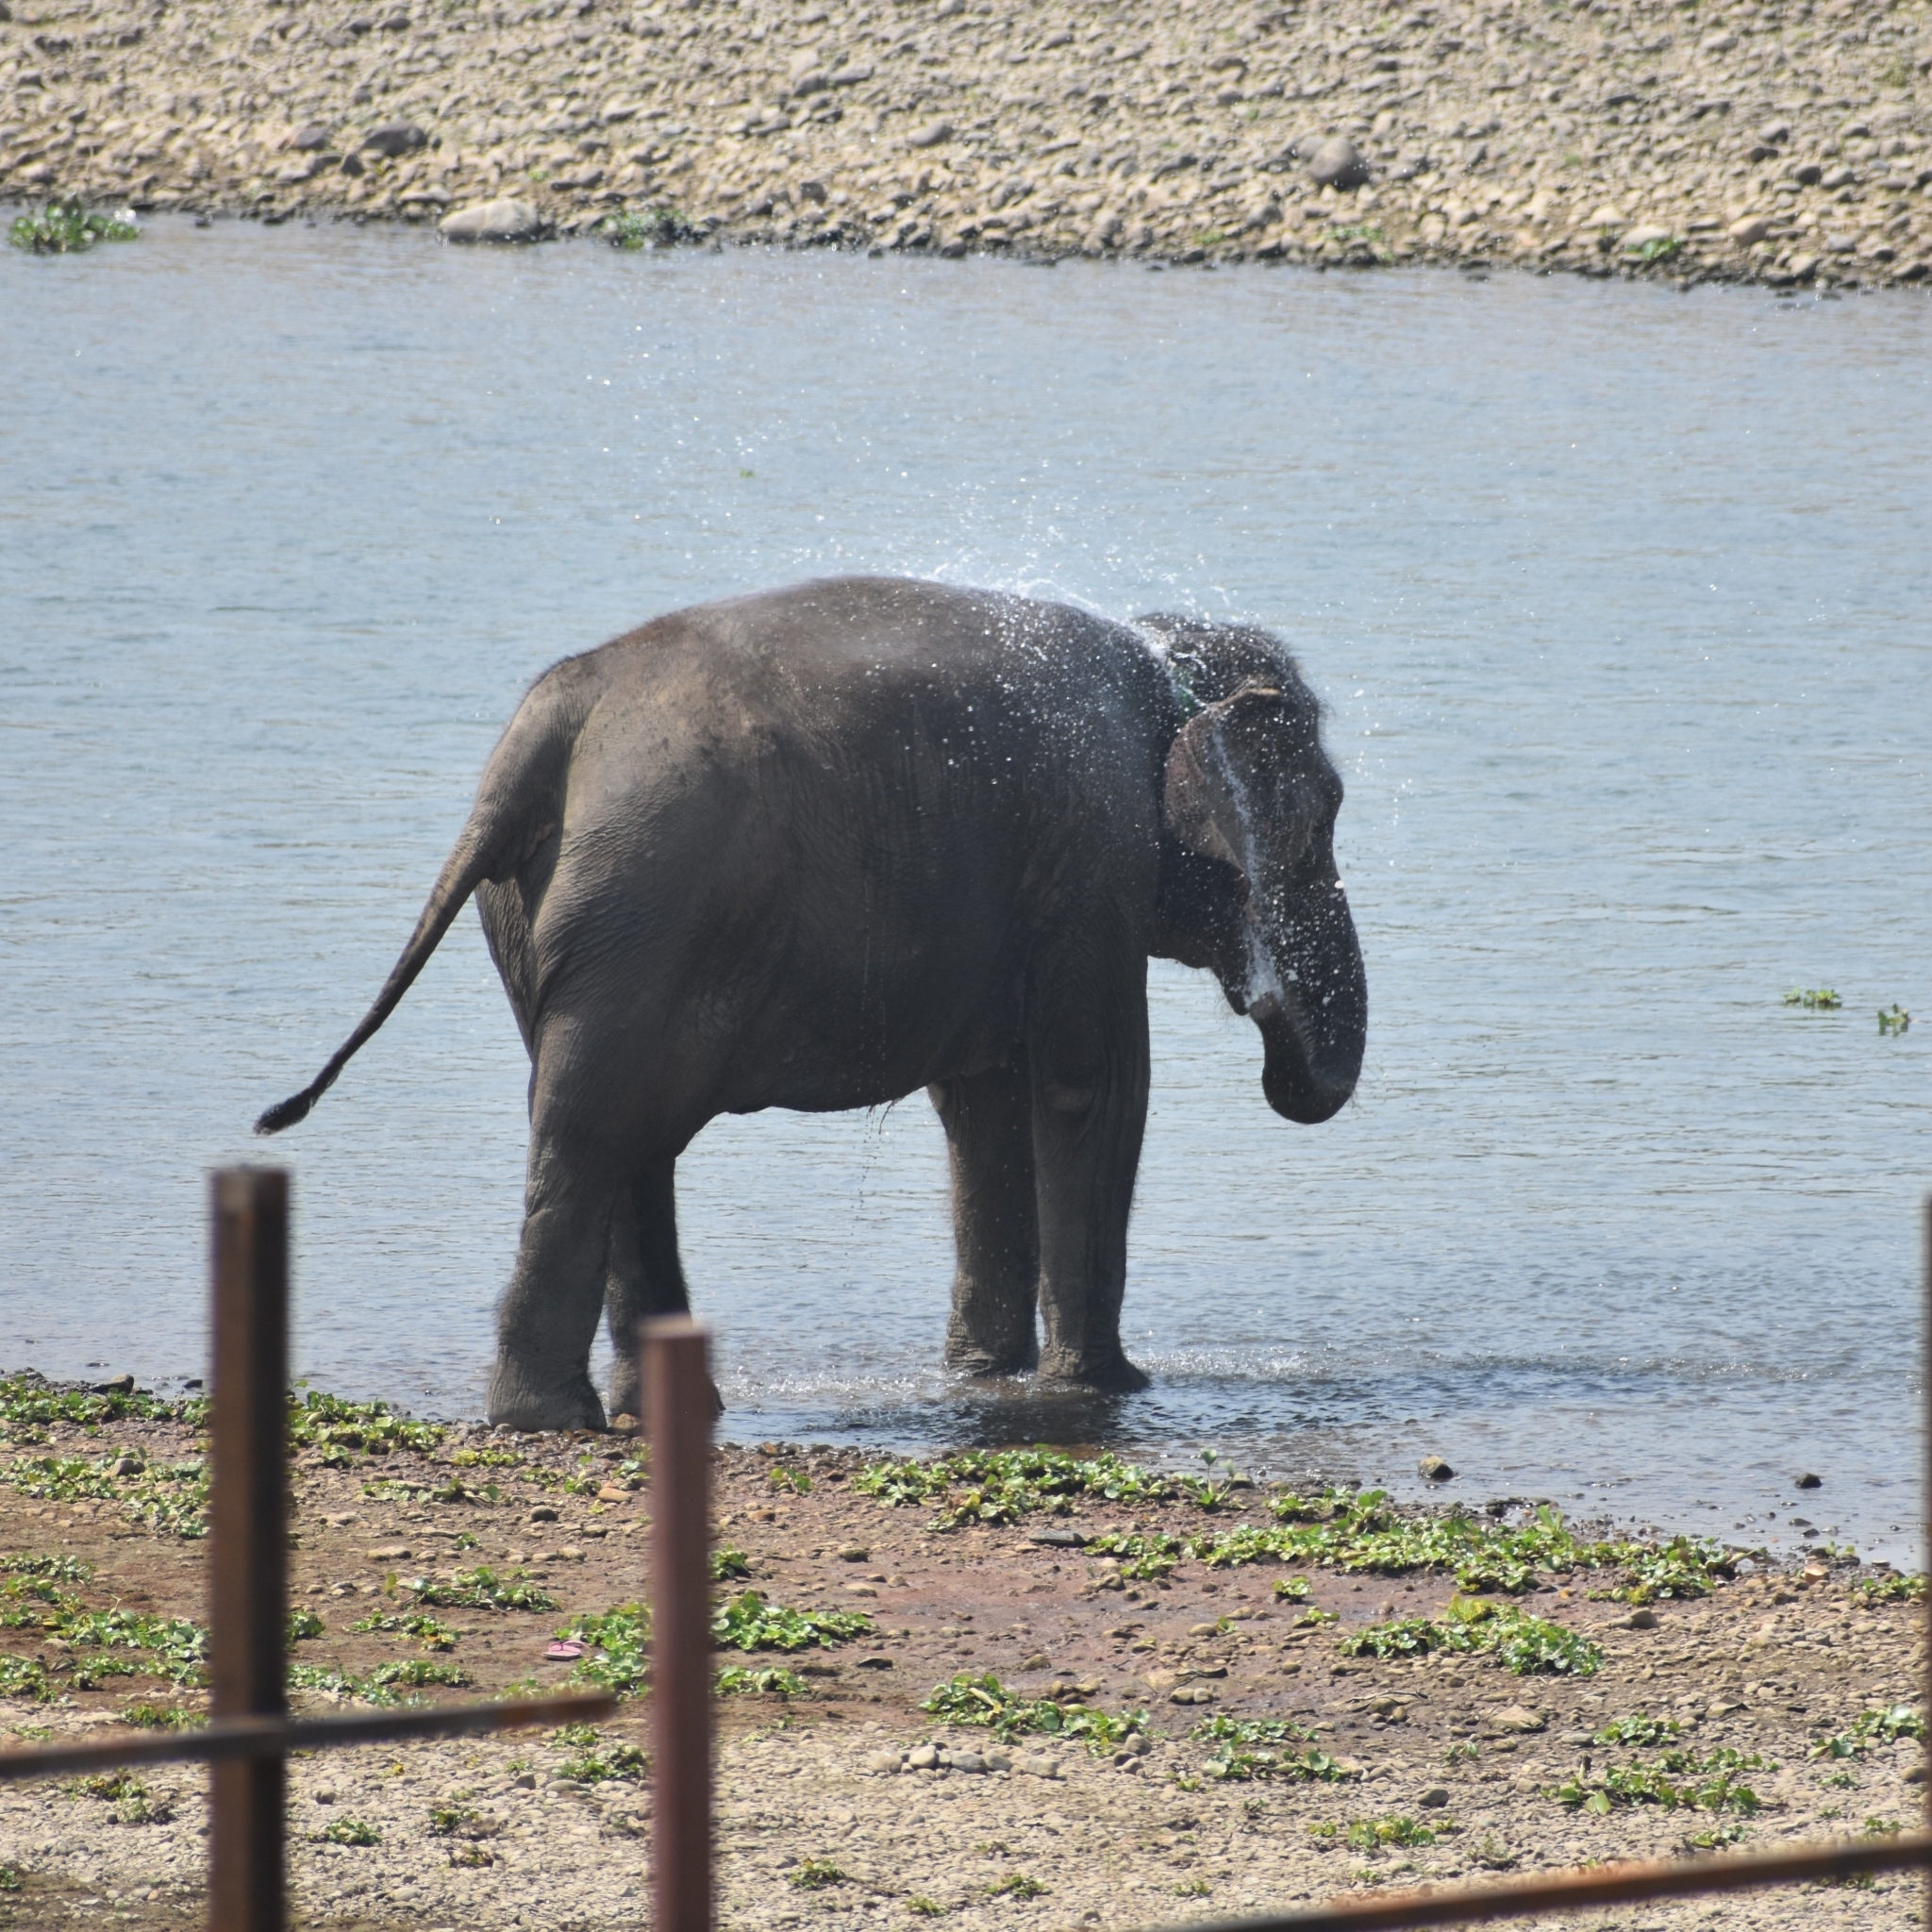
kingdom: Animalia
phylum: Chordata
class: Mammalia
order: Proboscidea
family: Elephantidae
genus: Elephas
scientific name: Elephas maximus
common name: Asian elephant
